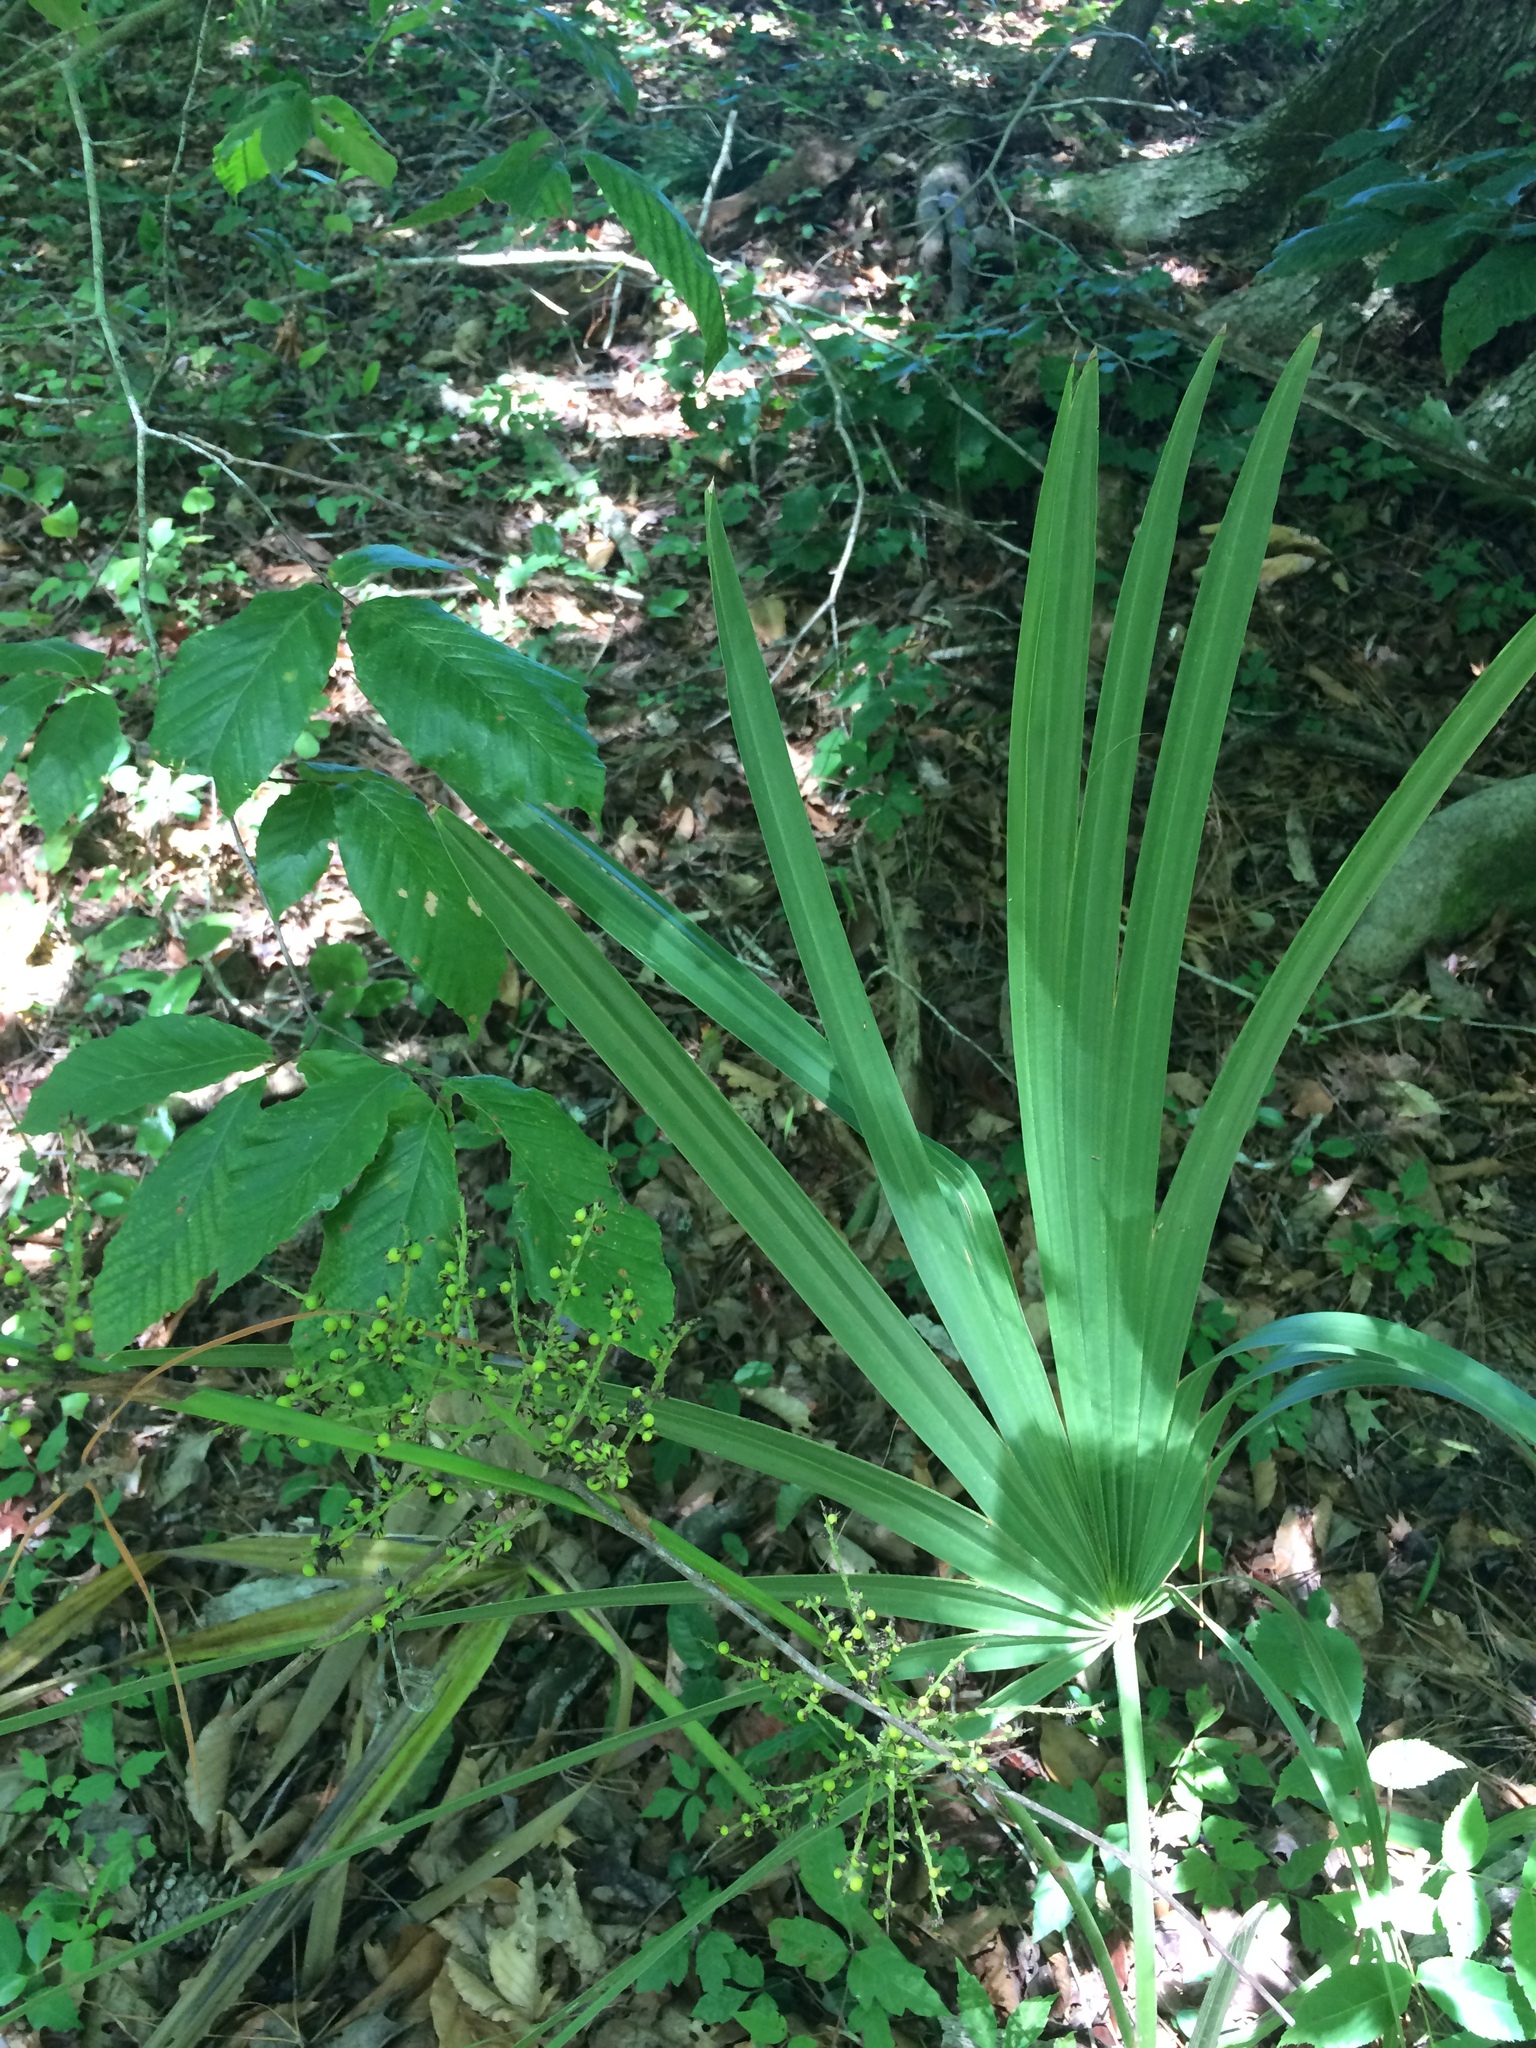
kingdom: Plantae
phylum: Tracheophyta
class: Liliopsida
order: Arecales
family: Arecaceae
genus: Sabal
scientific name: Sabal minor
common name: Dwarf palmetto
